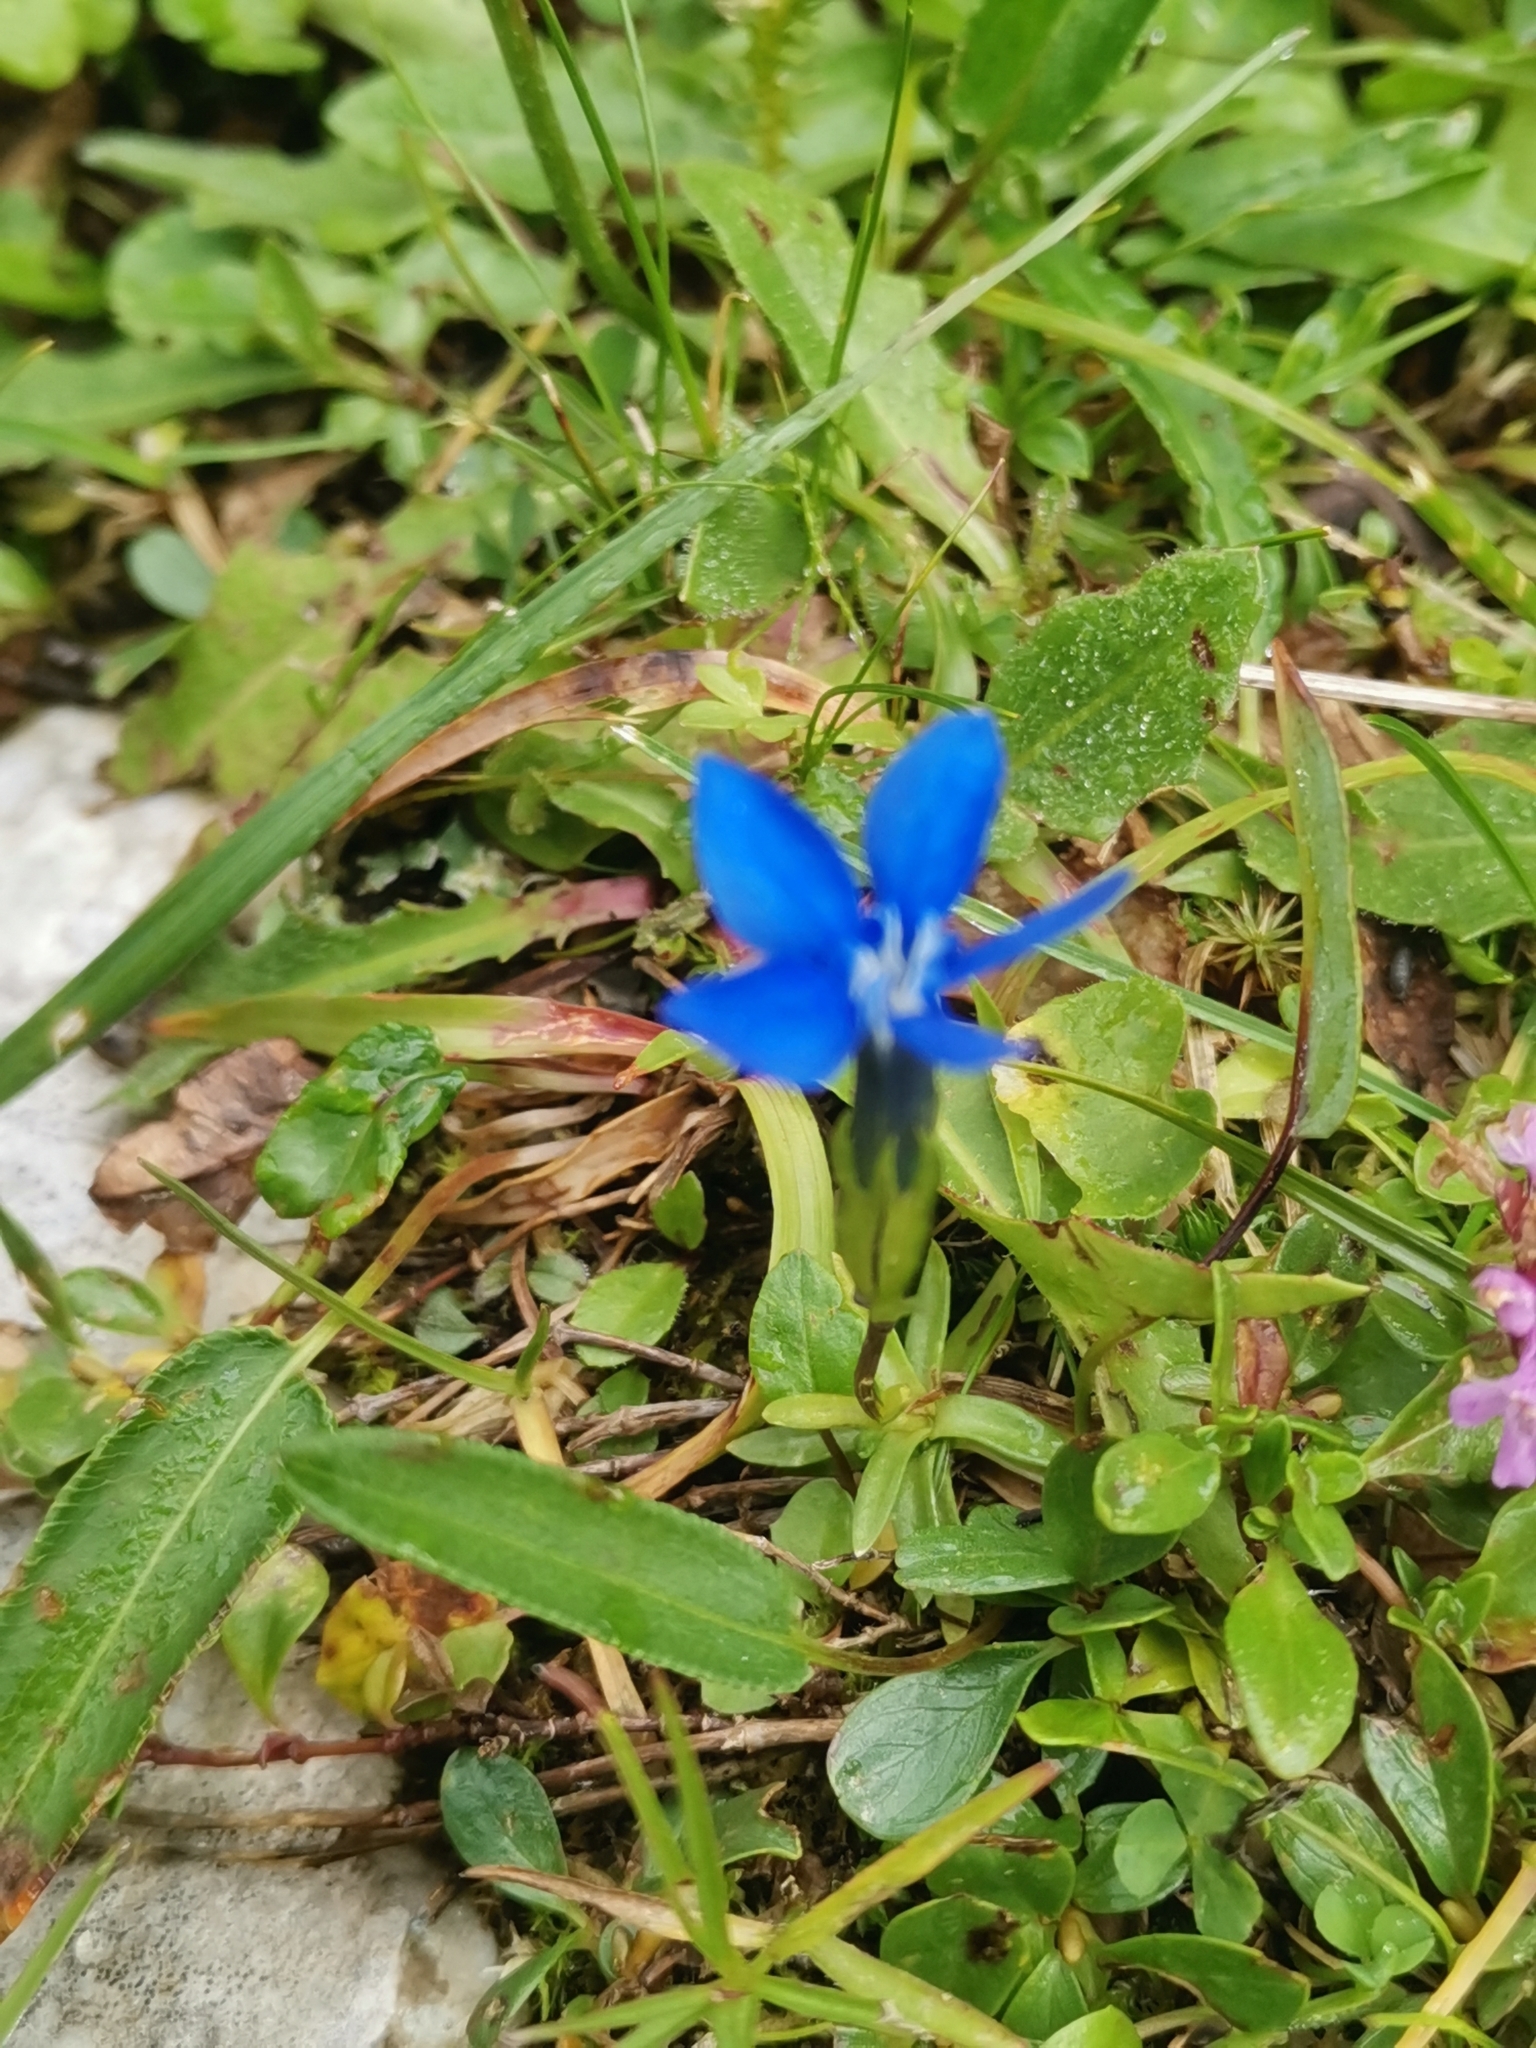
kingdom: Plantae
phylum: Tracheophyta
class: Magnoliopsida
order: Gentianales
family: Gentianaceae
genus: Gentiana
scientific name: Gentiana pumila
